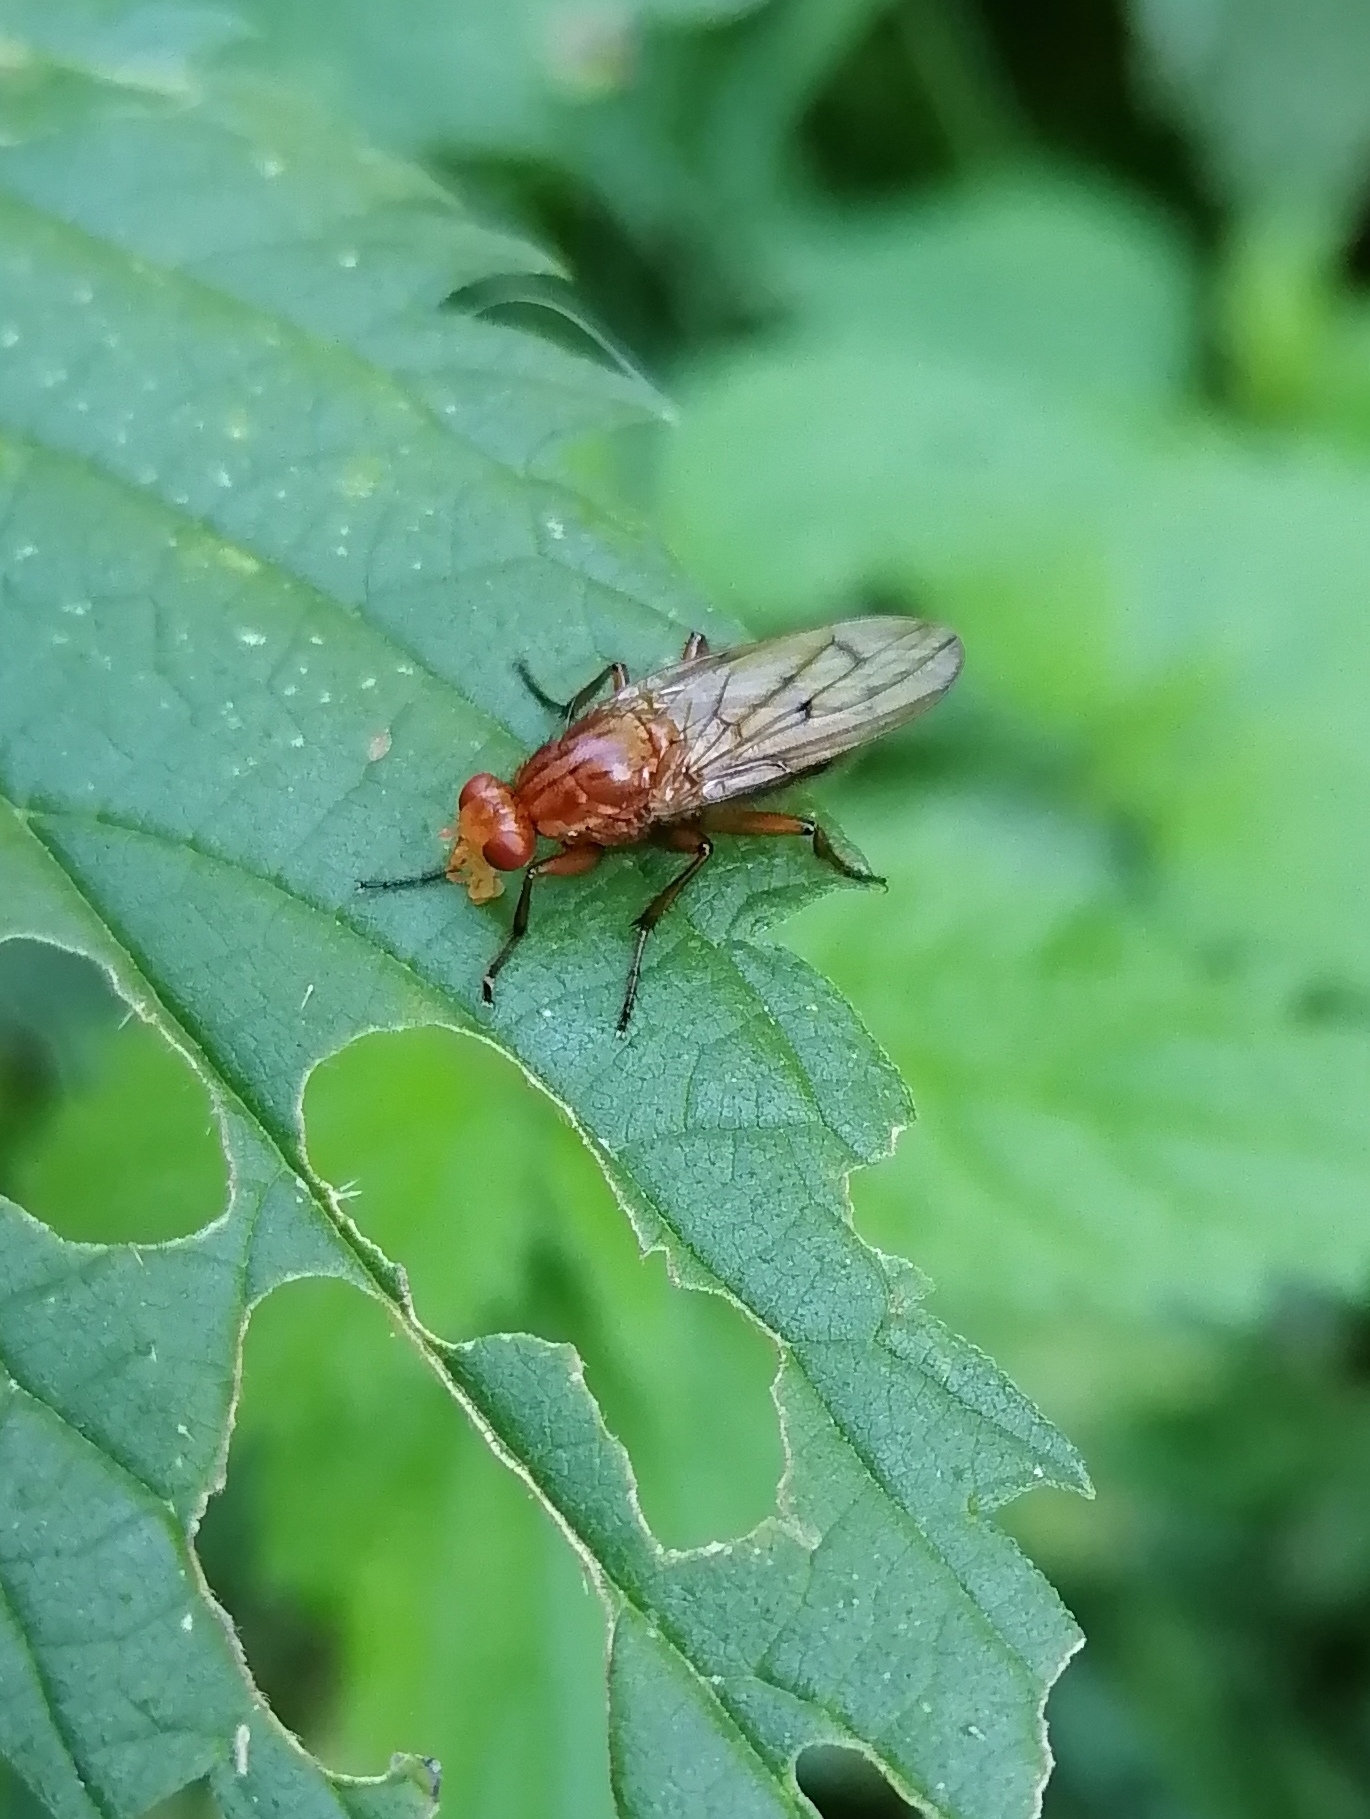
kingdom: Animalia
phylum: Arthropoda
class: Insecta
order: Diptera
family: Dryomyzidae
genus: Dryomyza
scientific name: Dryomyza anilis
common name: Marsh fly
